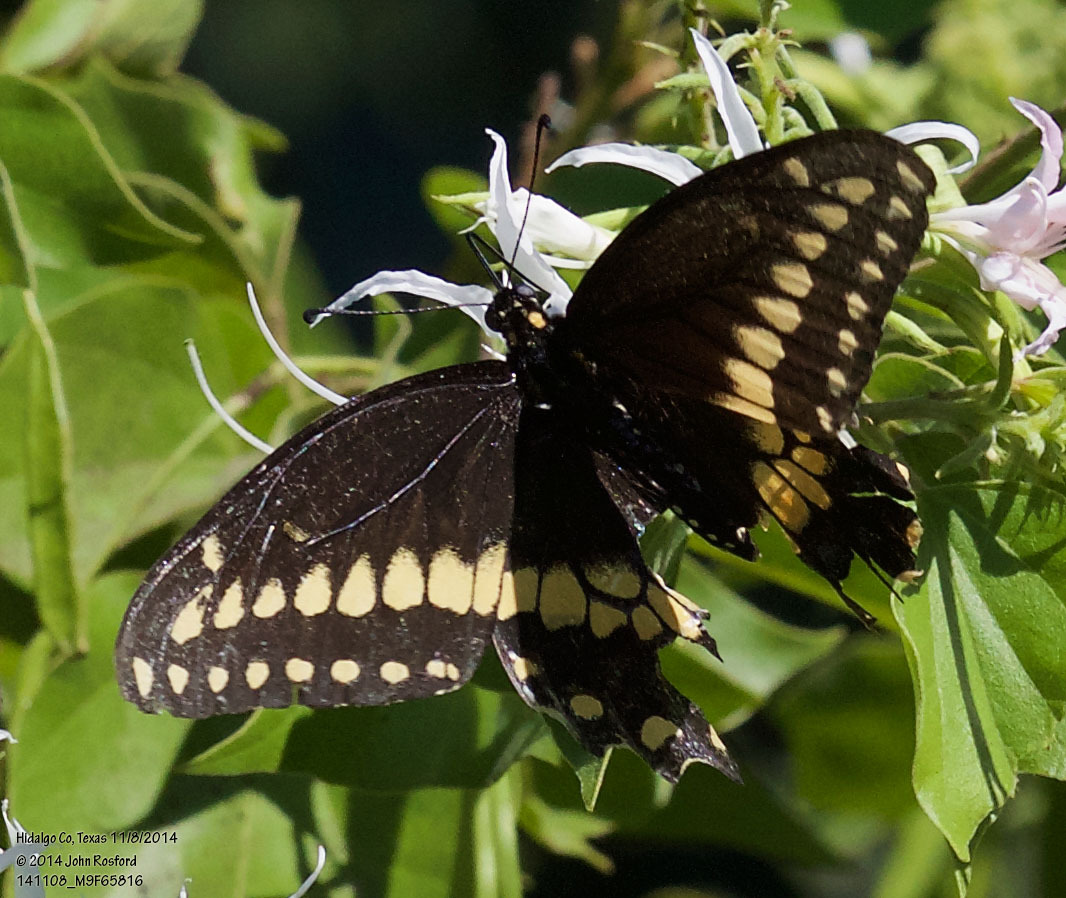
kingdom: Animalia
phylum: Arthropoda
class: Insecta
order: Lepidoptera
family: Papilionidae
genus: Papilio
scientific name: Papilio polyxenes
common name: Black swallowtail
